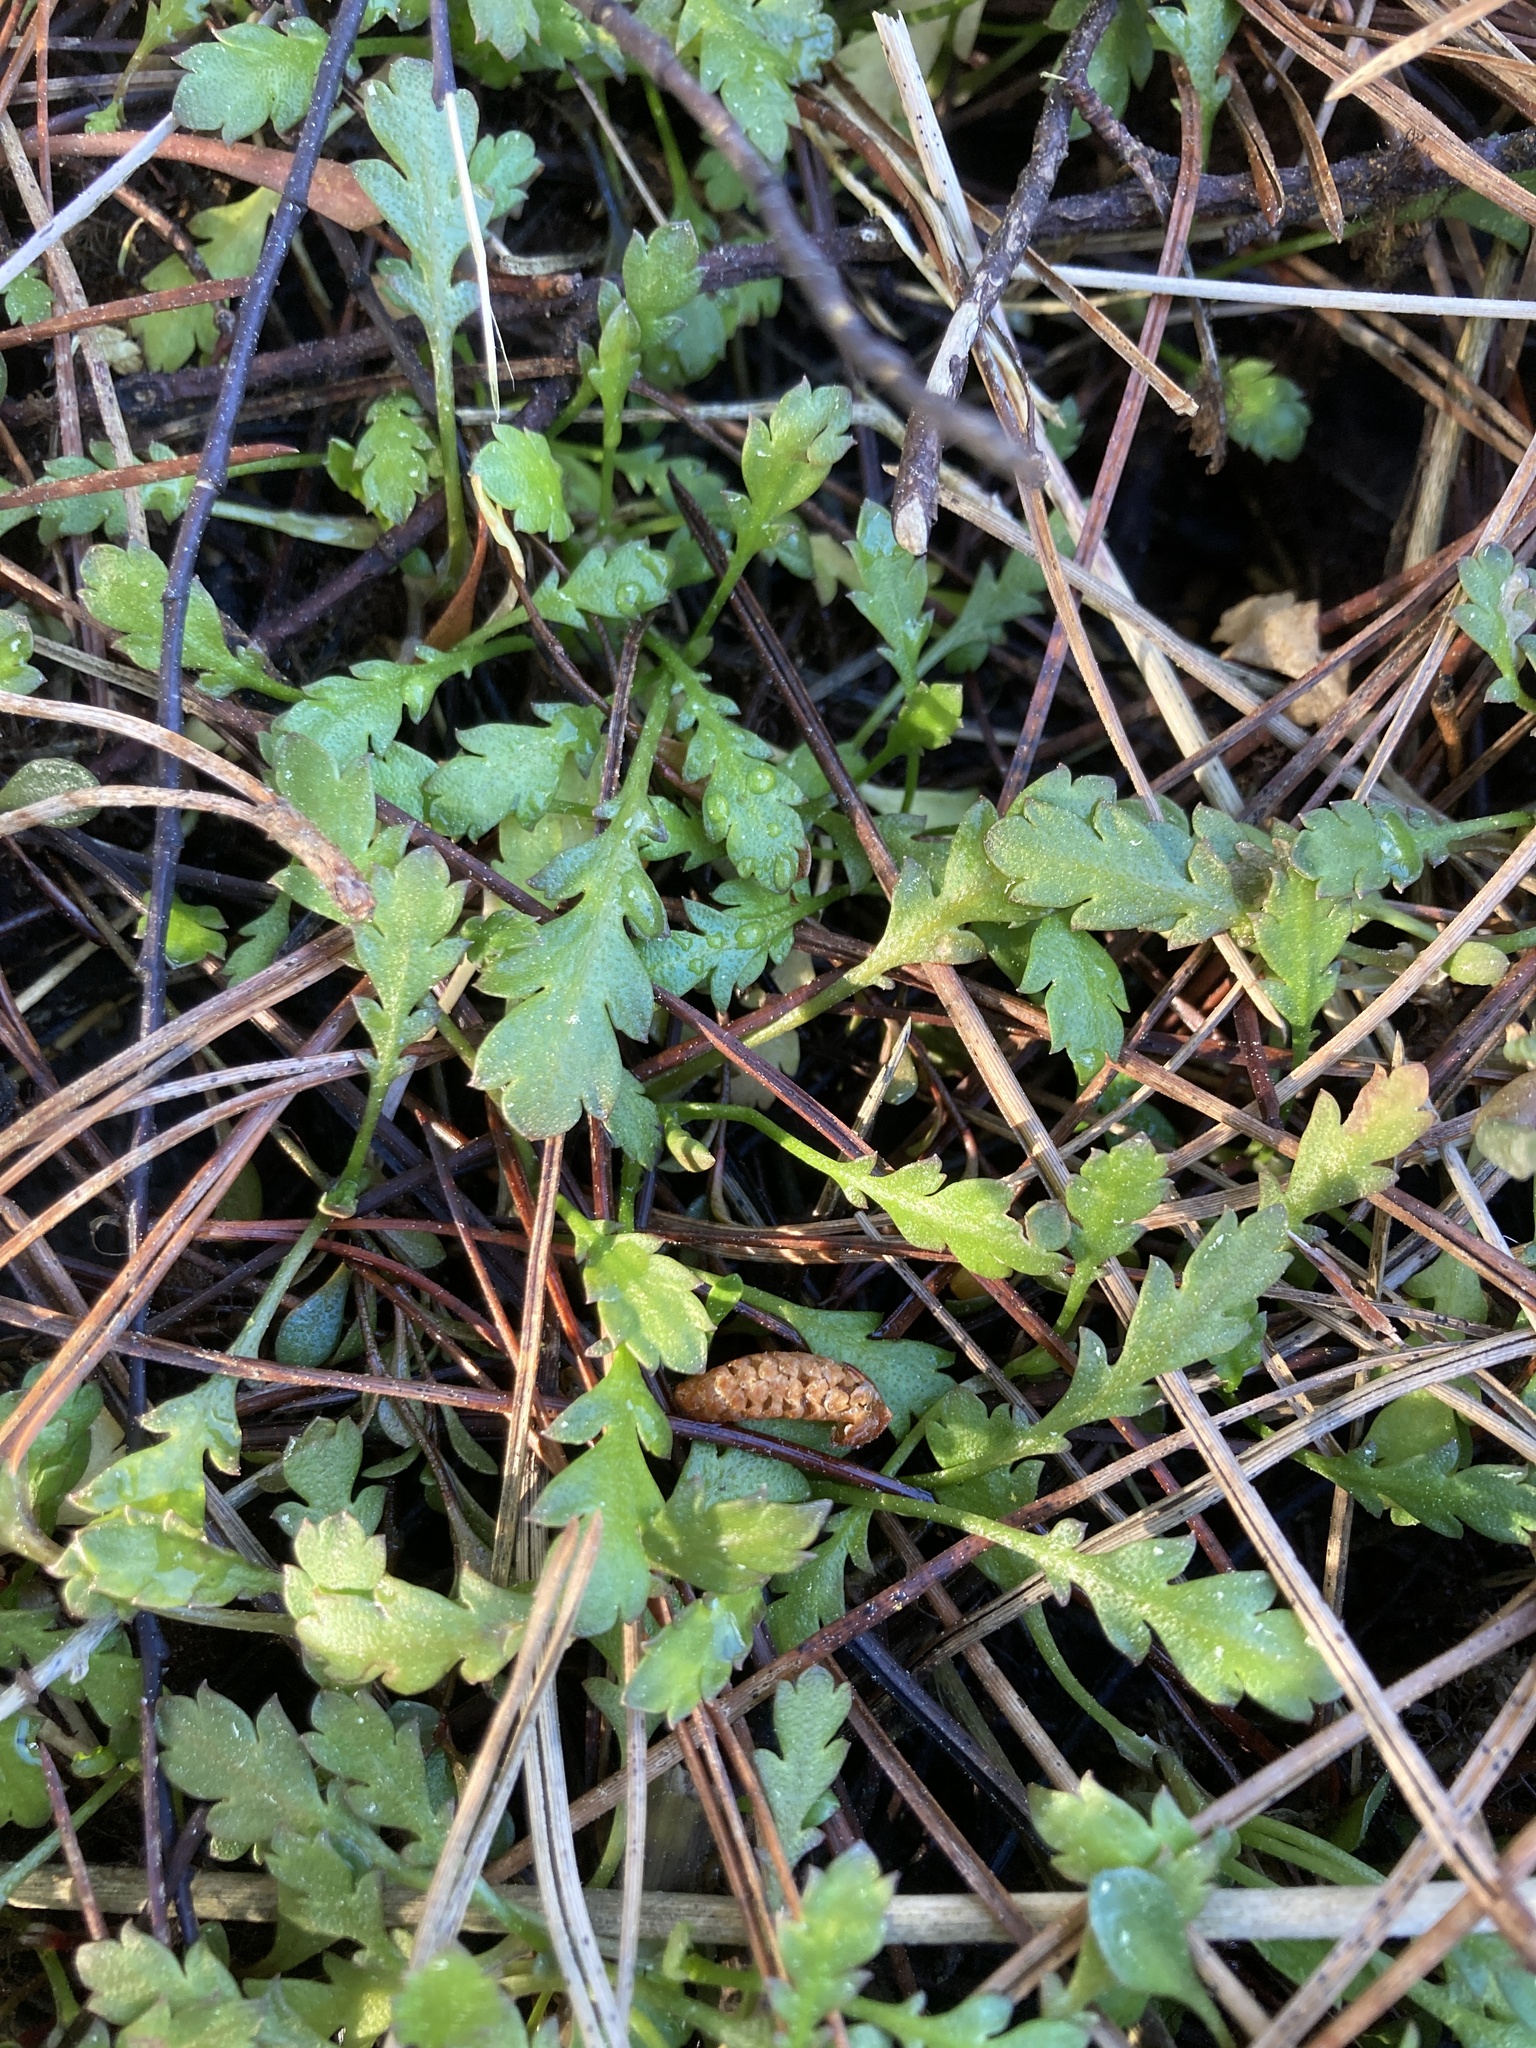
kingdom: Plantae
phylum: Tracheophyta
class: Magnoliopsida
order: Asterales
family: Asteraceae
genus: Leptinella
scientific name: Leptinella dioica
